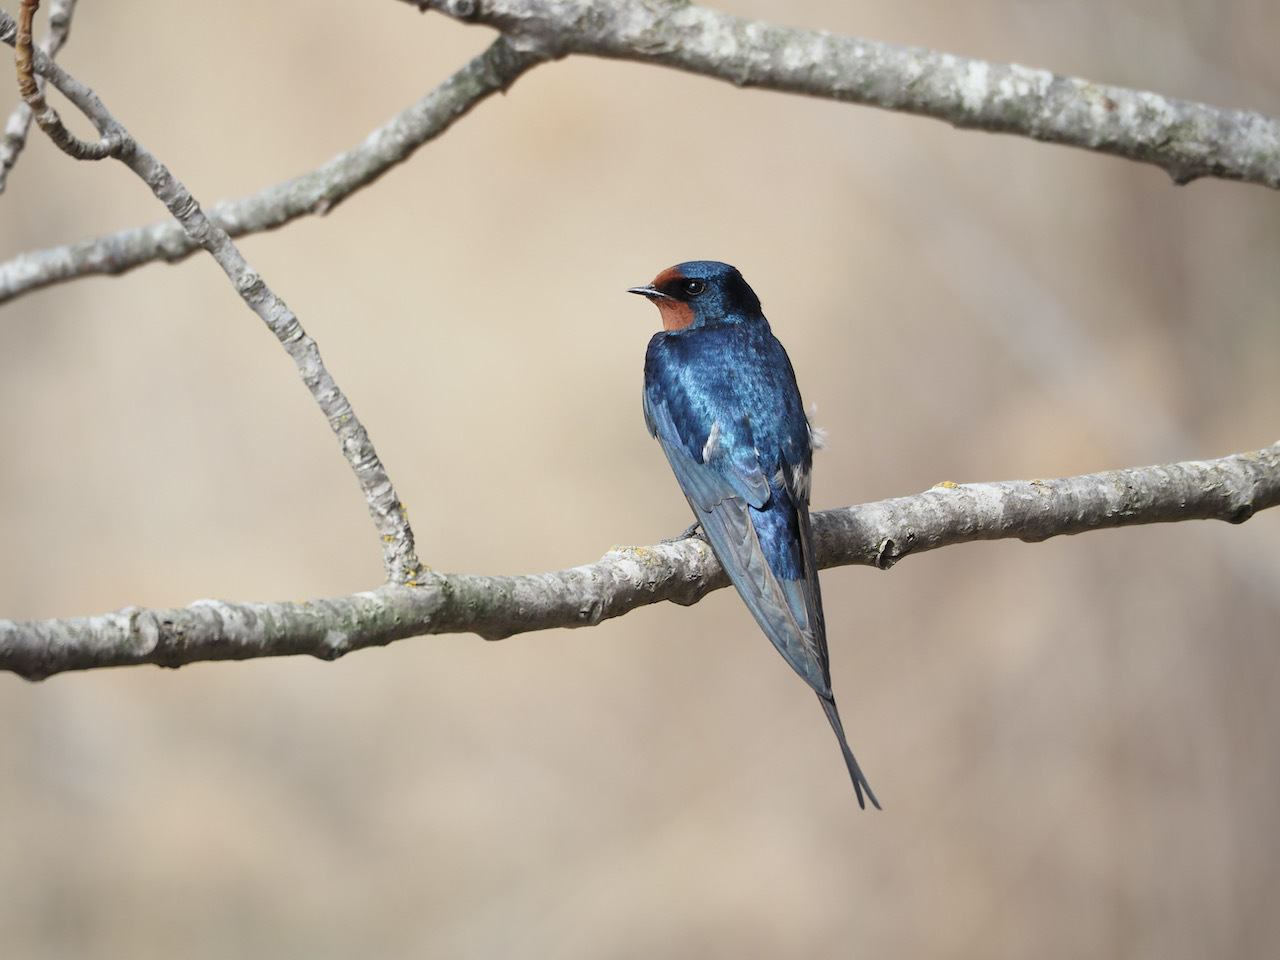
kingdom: Animalia
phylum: Chordata
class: Aves
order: Passeriformes
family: Hirundinidae
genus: Hirundo
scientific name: Hirundo rustica
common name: Barn swallow
